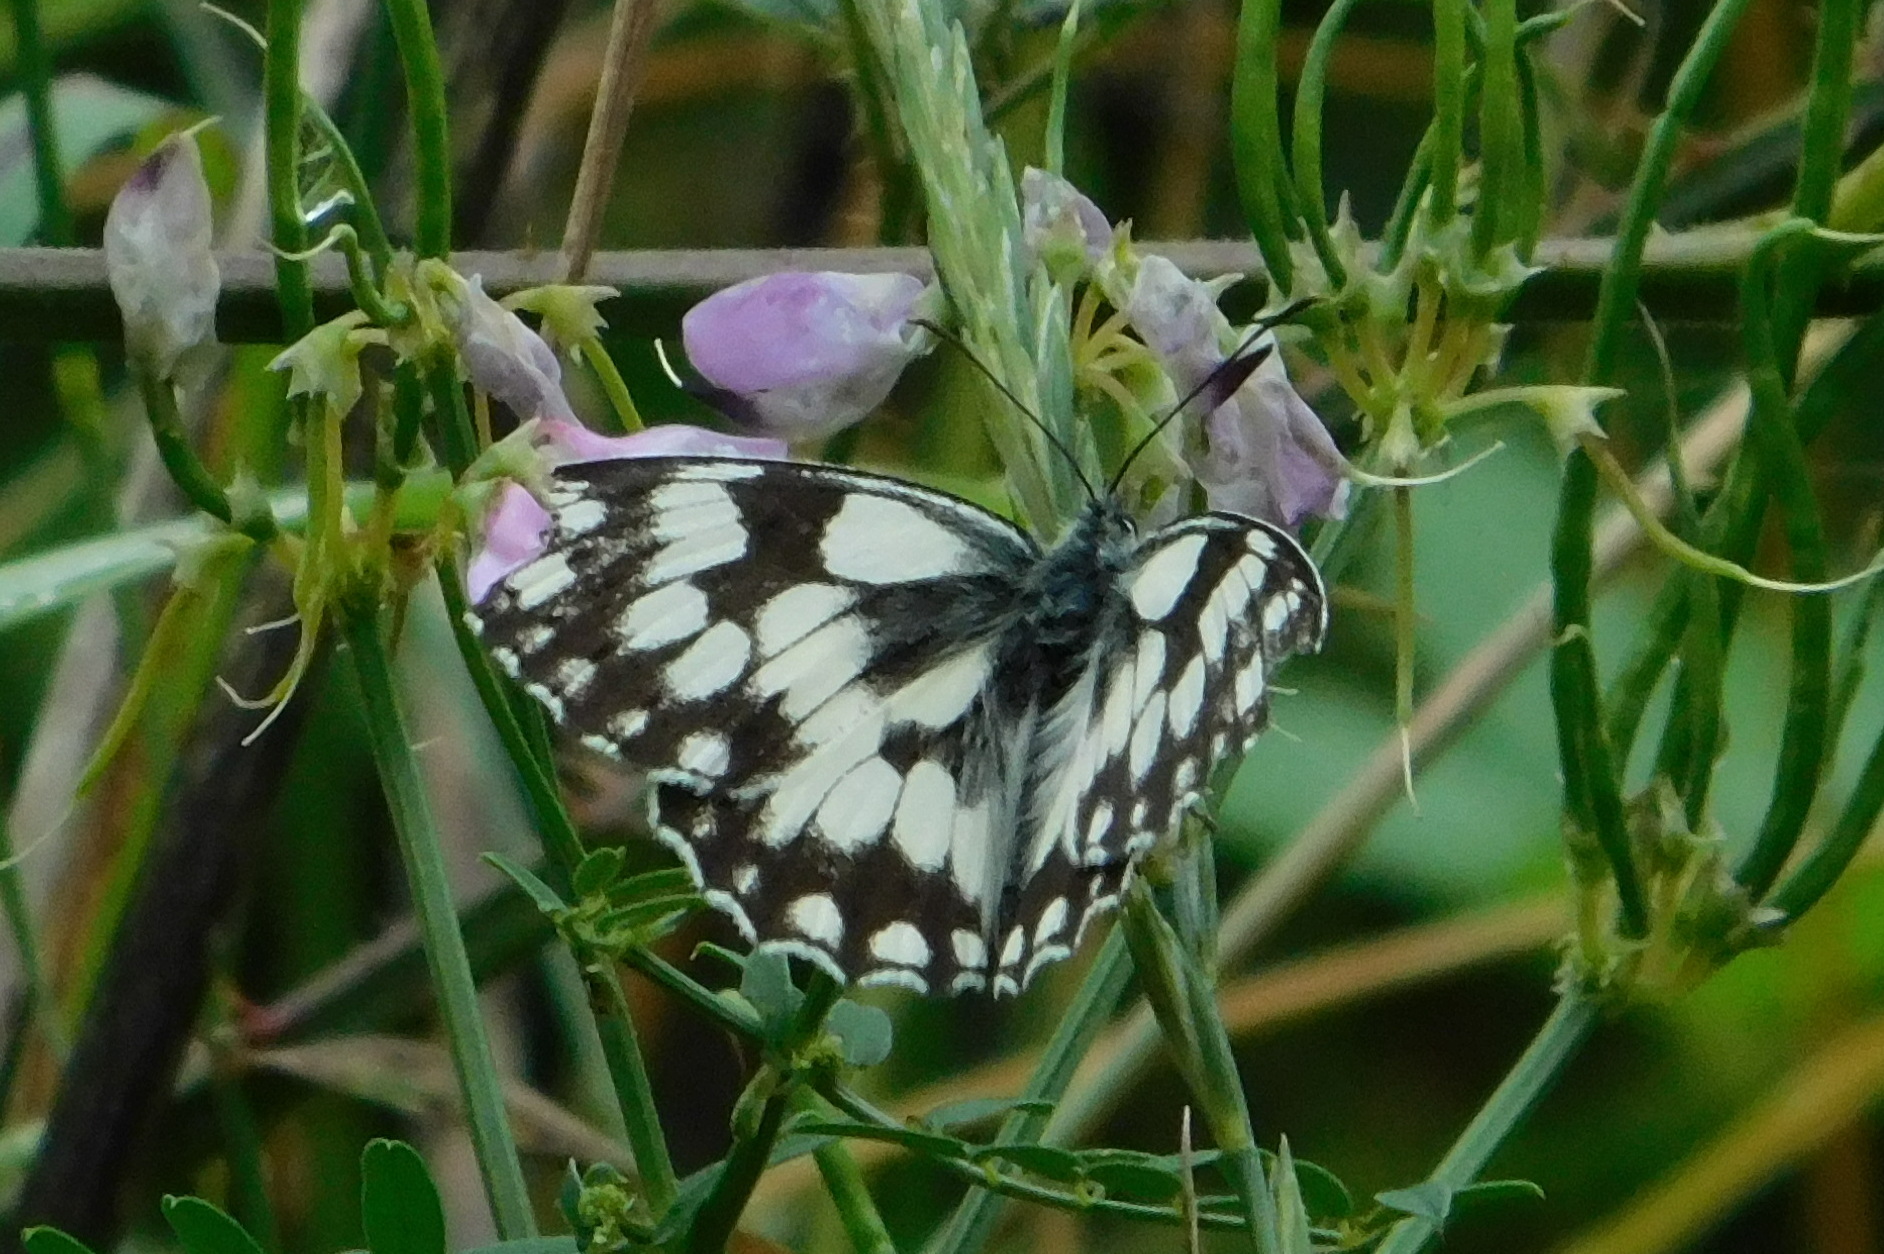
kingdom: Animalia
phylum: Arthropoda
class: Insecta
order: Lepidoptera
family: Nymphalidae
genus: Melanargia
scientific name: Melanargia galathea
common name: Marbled white
